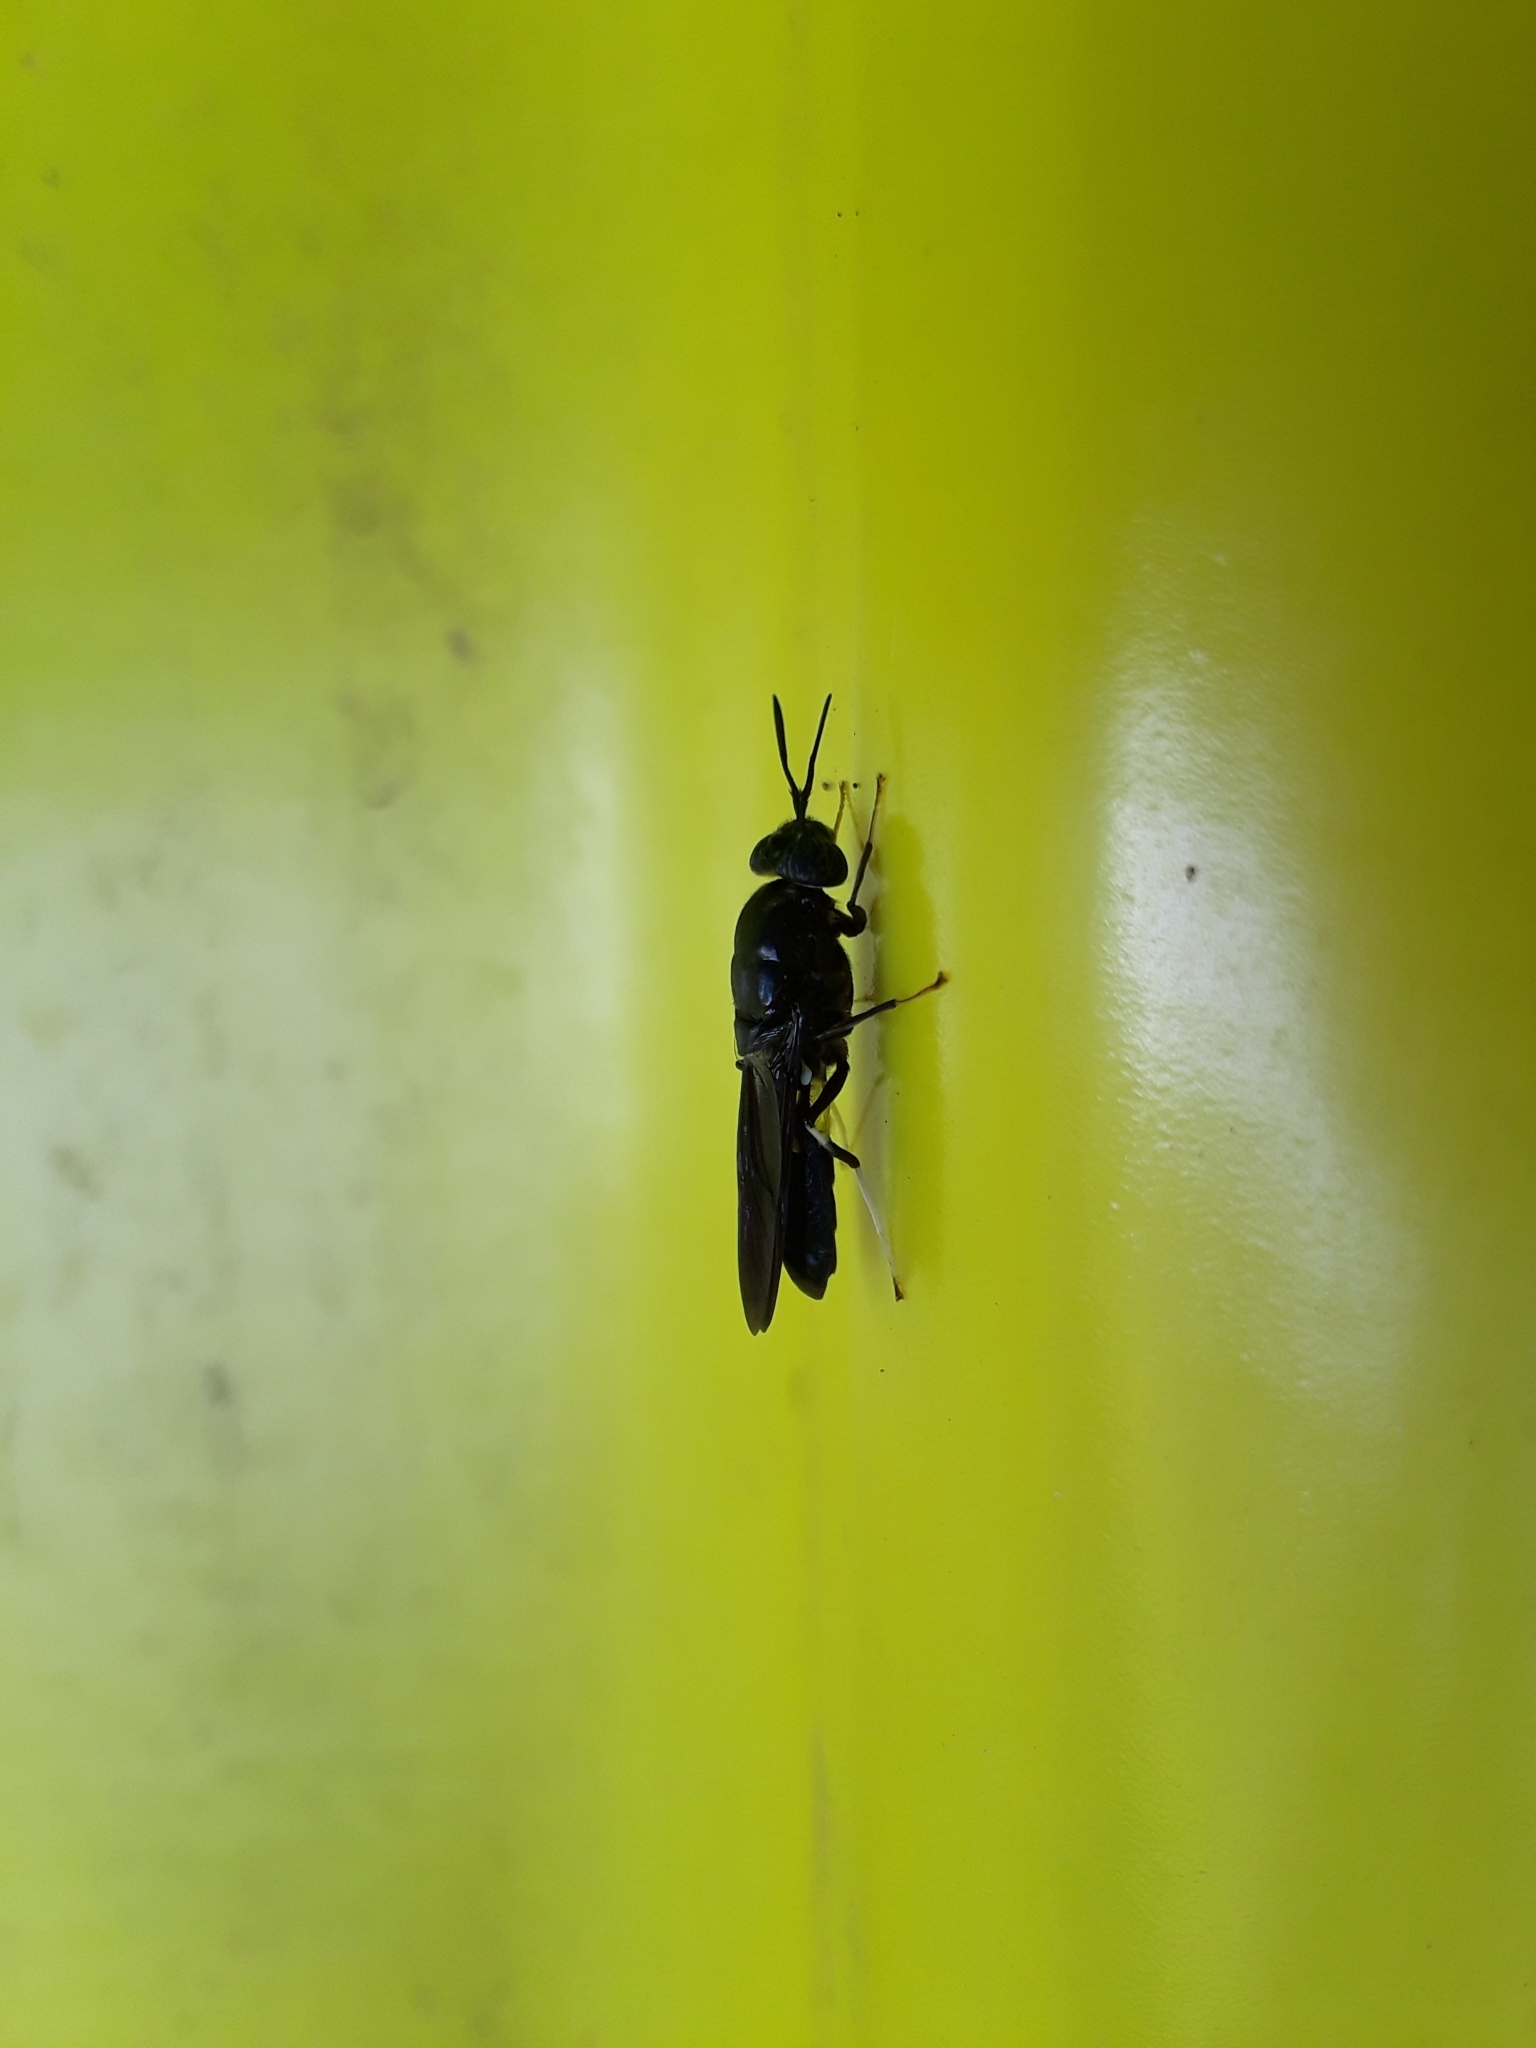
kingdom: Animalia
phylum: Arthropoda
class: Insecta
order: Diptera
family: Stratiomyidae
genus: Hermetia
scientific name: Hermetia illucens
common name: Black soldier fly
